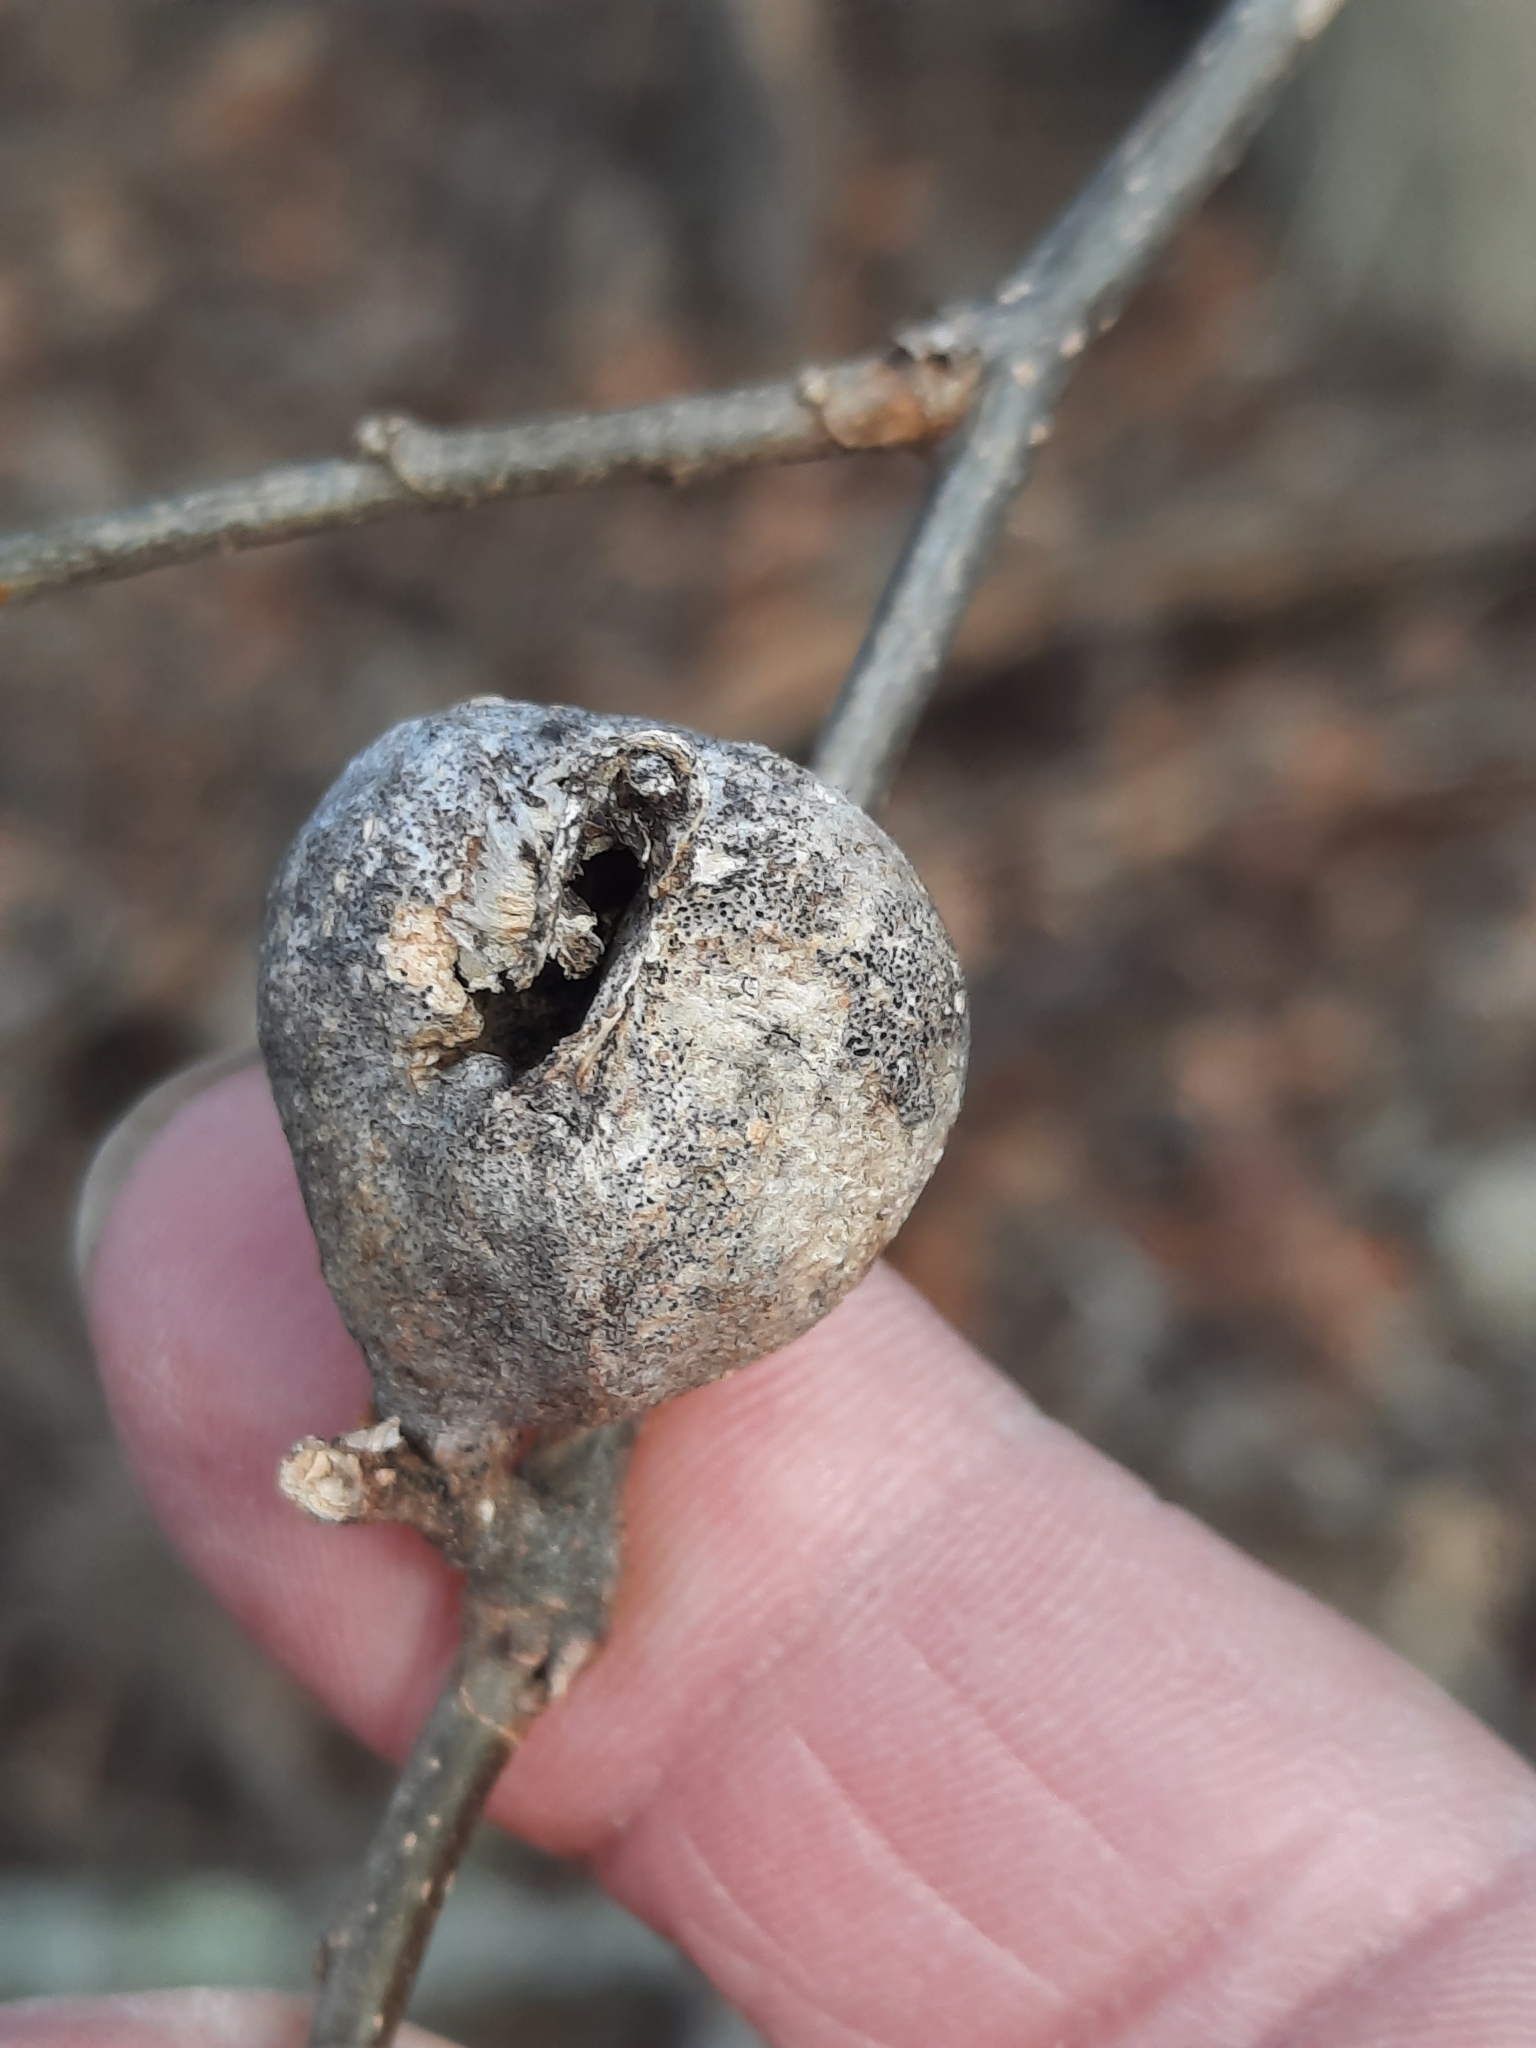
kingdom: Animalia
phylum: Arthropoda
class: Insecta
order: Hemiptera
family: Aphalaridae
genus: Pachypsylla
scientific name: Pachypsylla venusta
